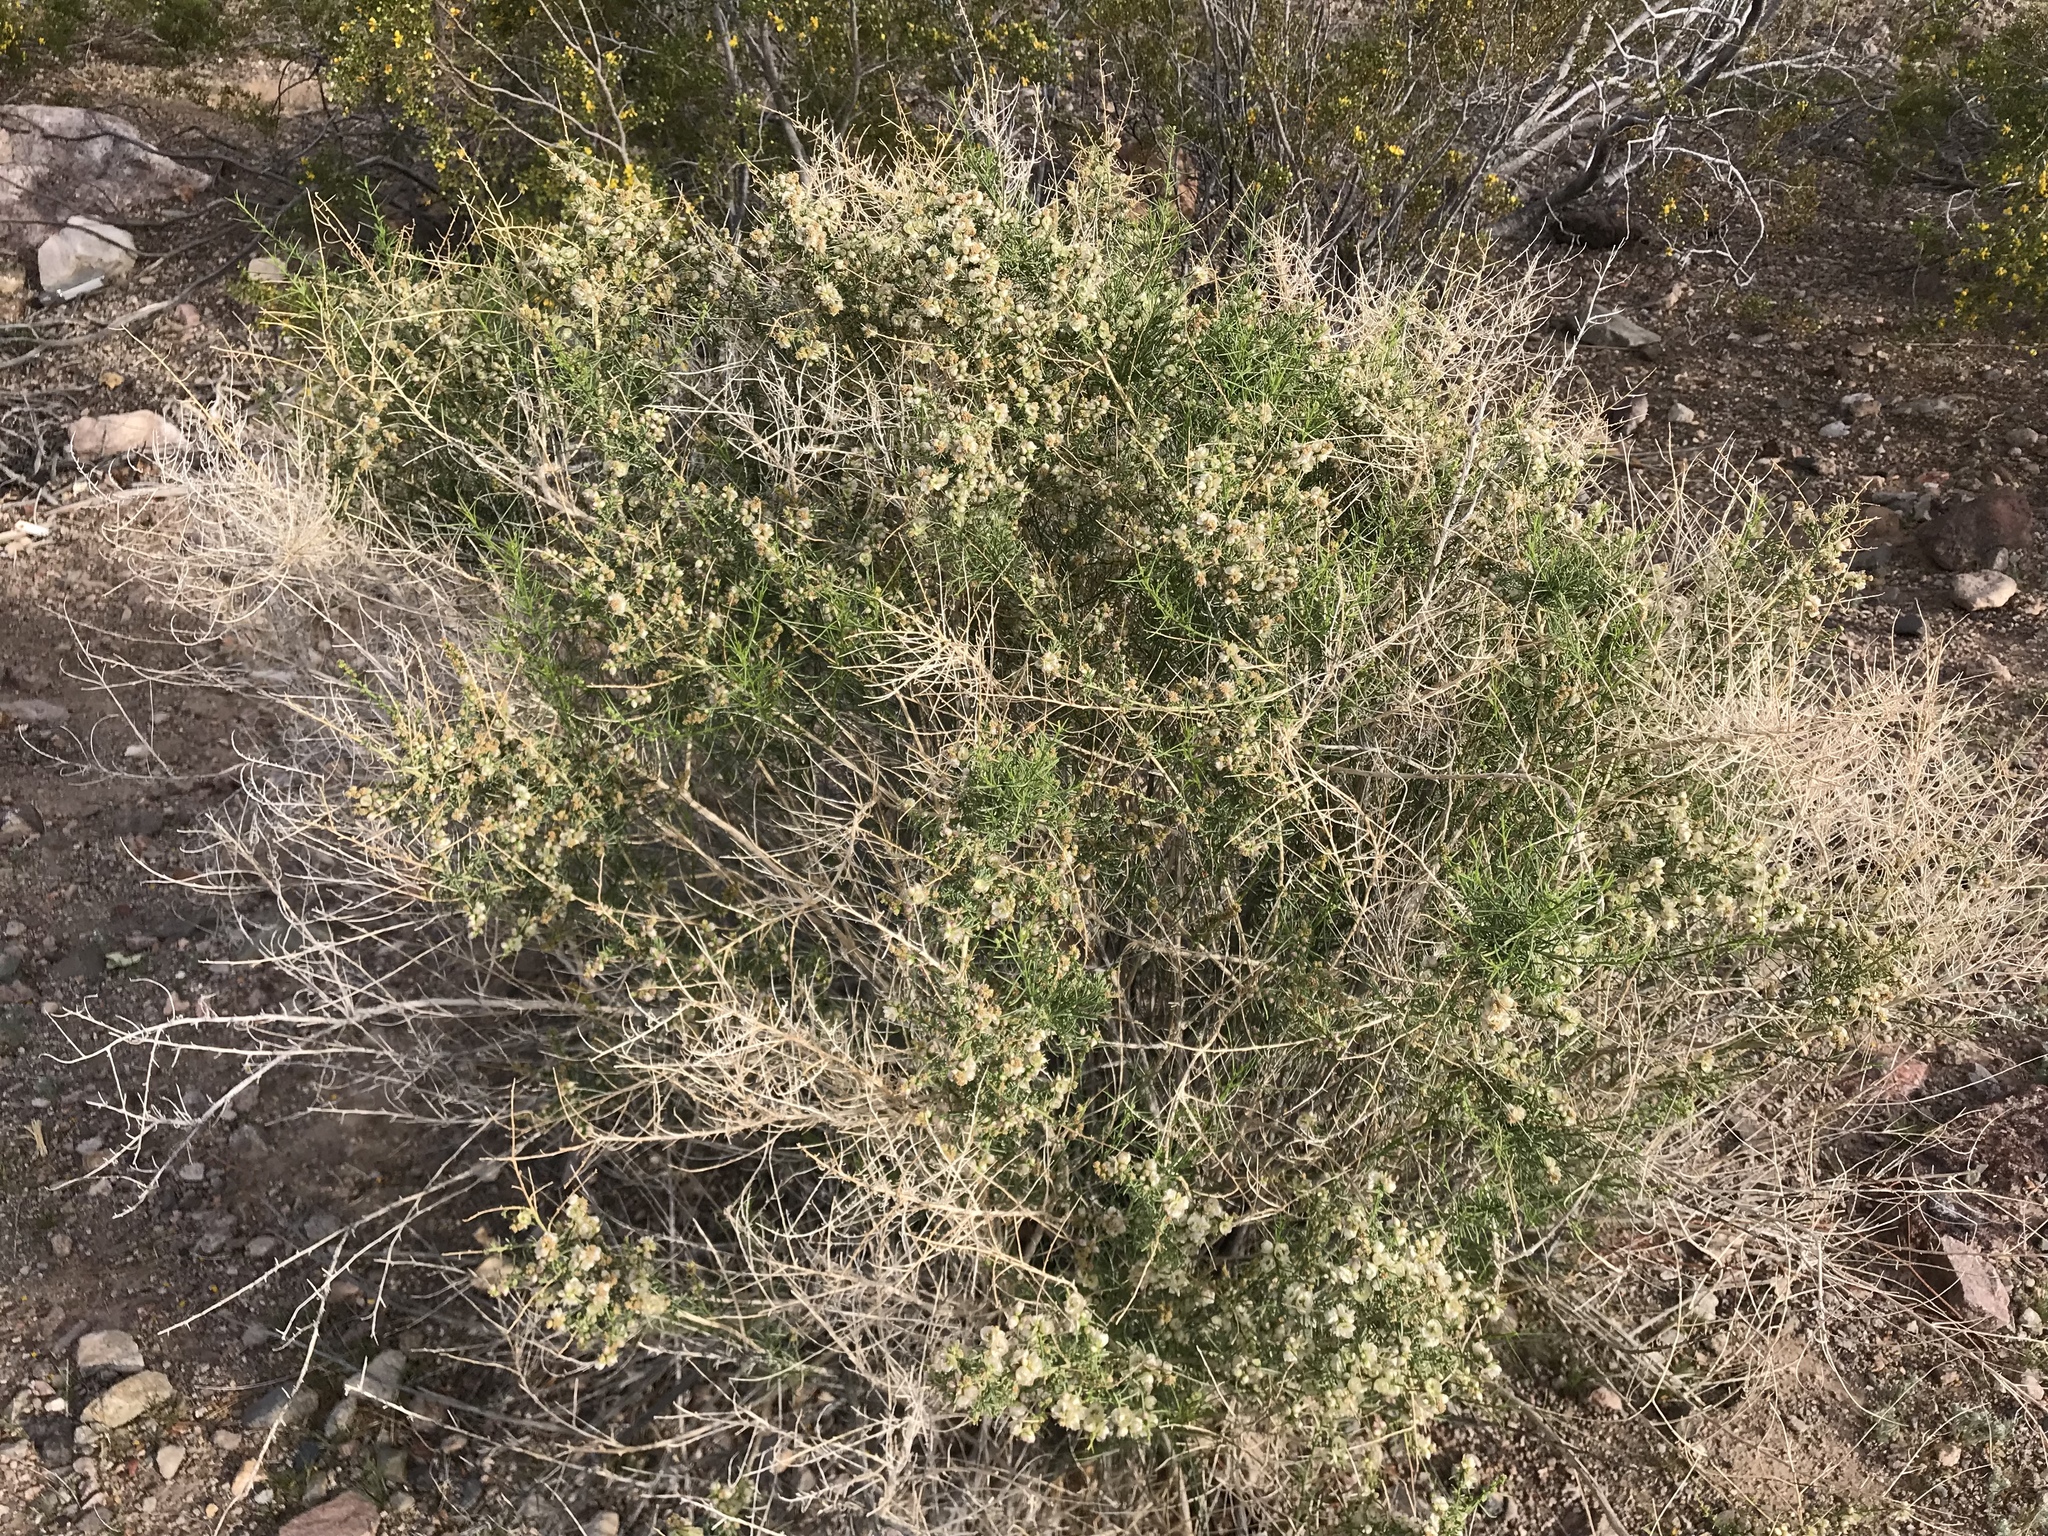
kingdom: Plantae
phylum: Tracheophyta
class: Magnoliopsida
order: Asterales
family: Asteraceae
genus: Ambrosia
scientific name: Ambrosia salsola
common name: Burrobrush
